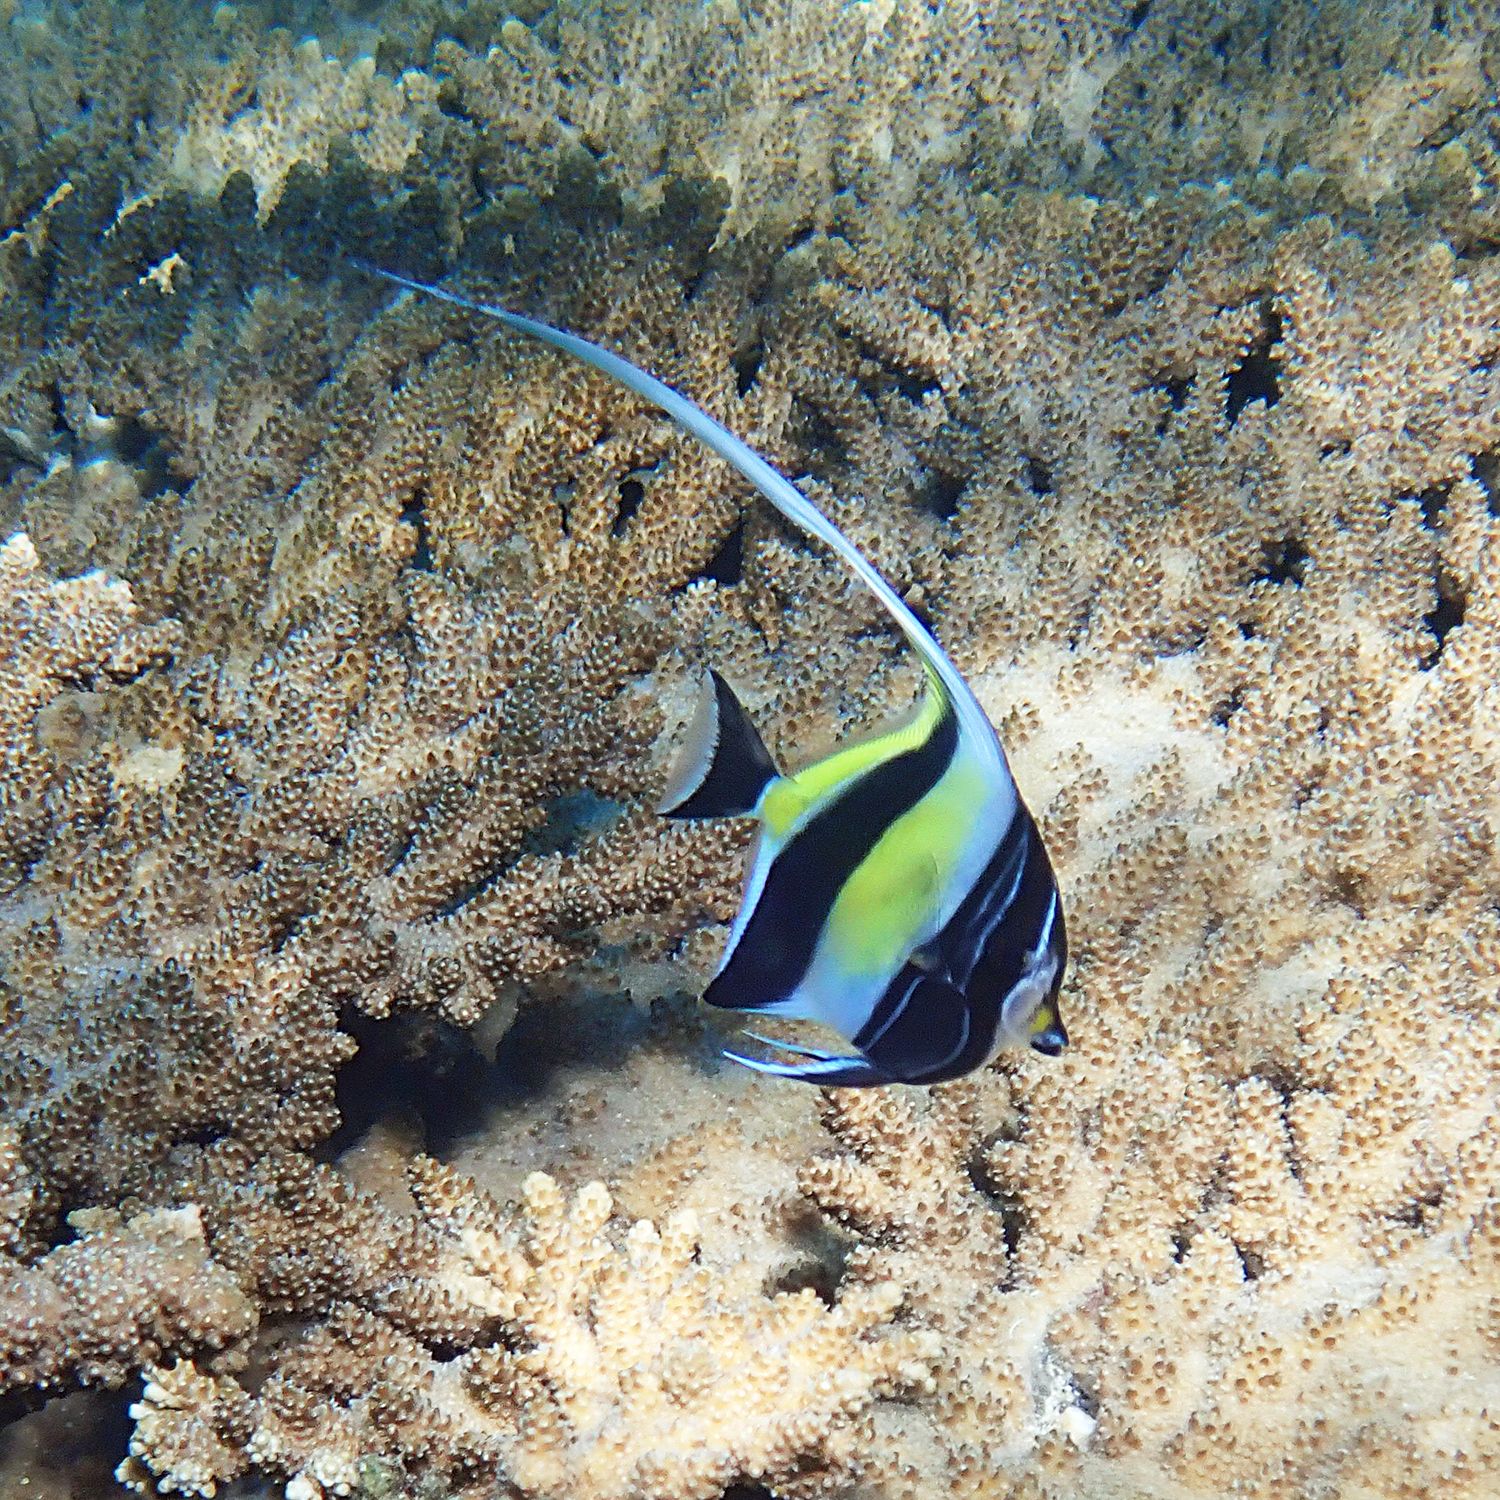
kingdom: Animalia
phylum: Chordata
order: Perciformes
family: Zanclidae
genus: Zanclus
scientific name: Zanclus cornutus
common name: Moorish idol
